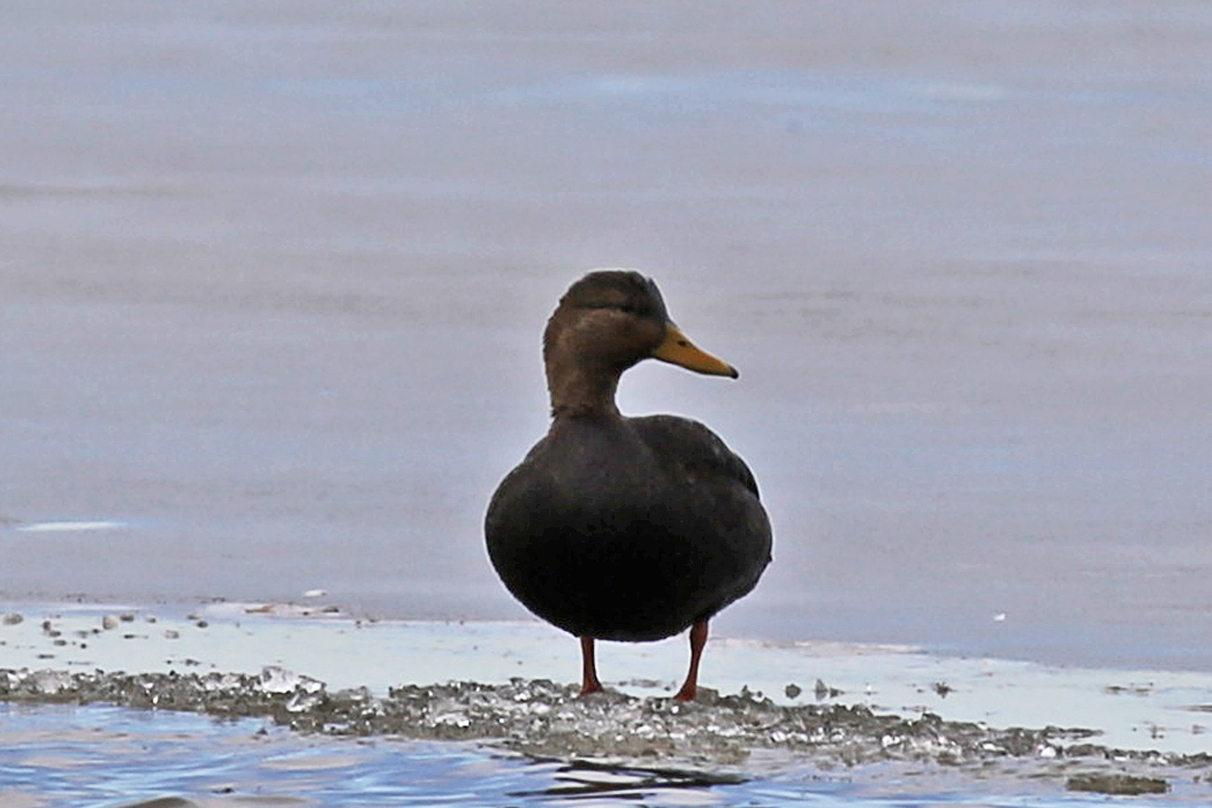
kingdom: Animalia
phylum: Chordata
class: Aves
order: Anseriformes
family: Anatidae
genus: Anas
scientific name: Anas rubripes
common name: American black duck
